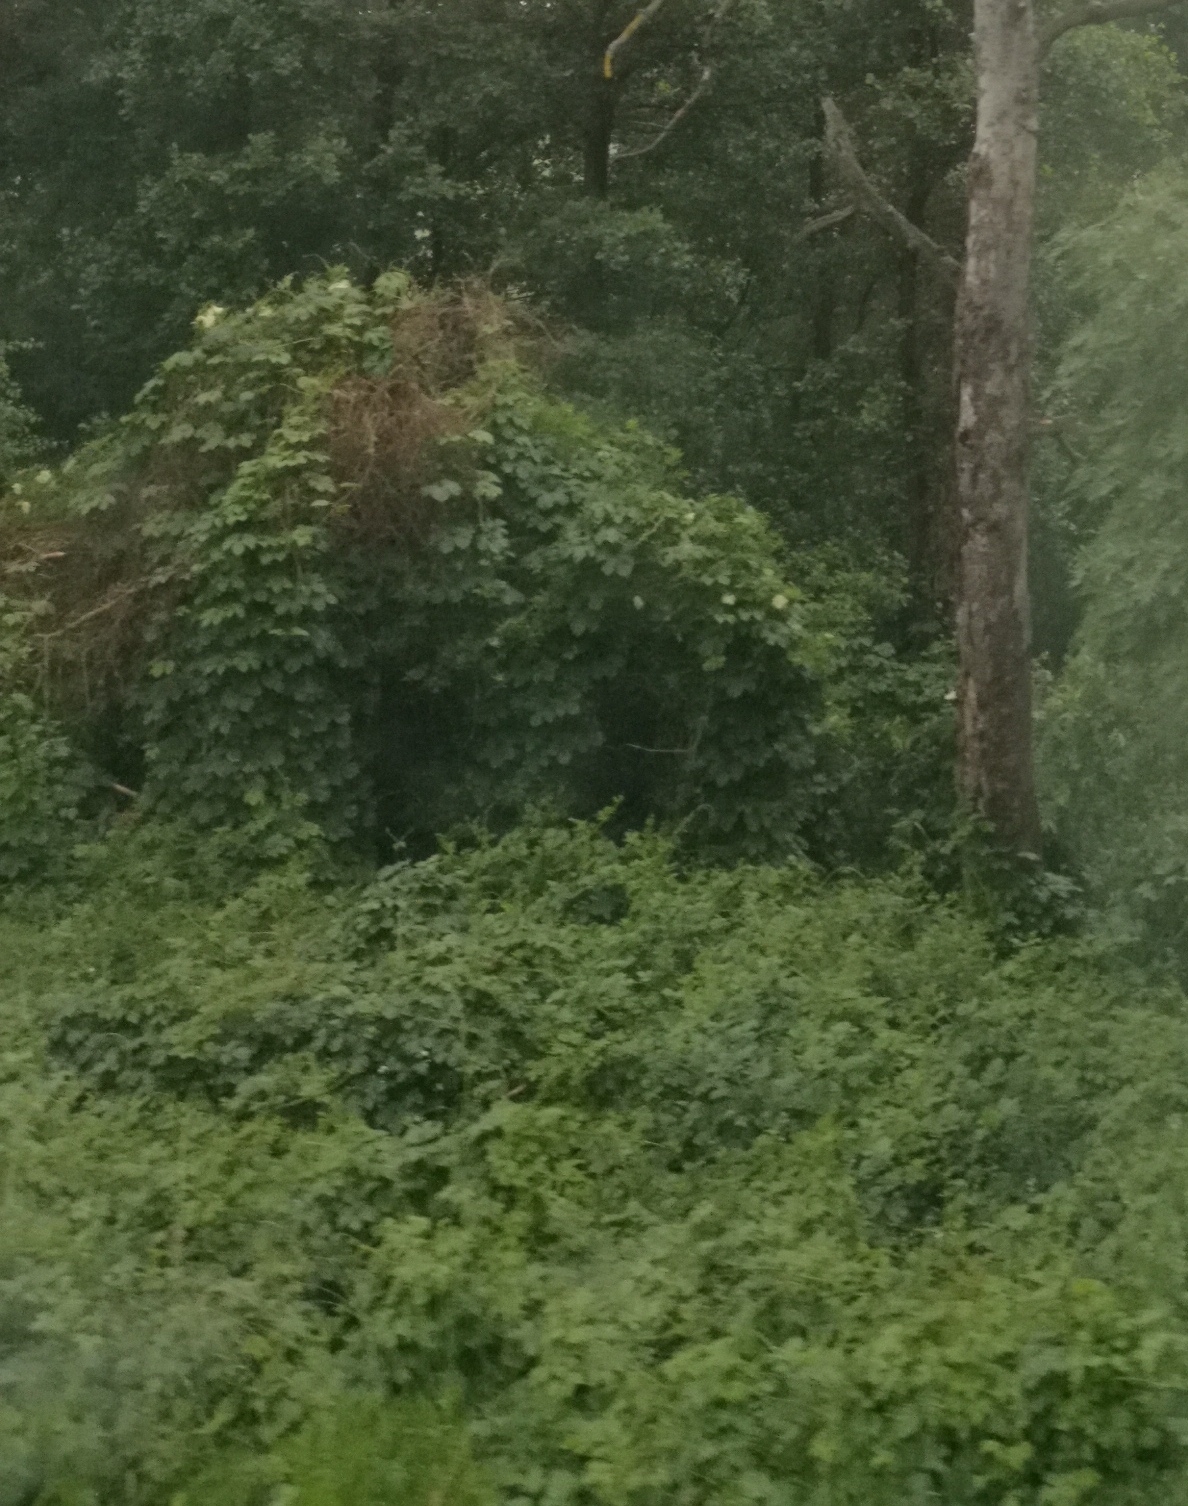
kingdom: Plantae
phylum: Tracheophyta
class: Magnoliopsida
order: Rosales
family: Cannabaceae
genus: Humulus
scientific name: Humulus lupulus
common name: Hop
